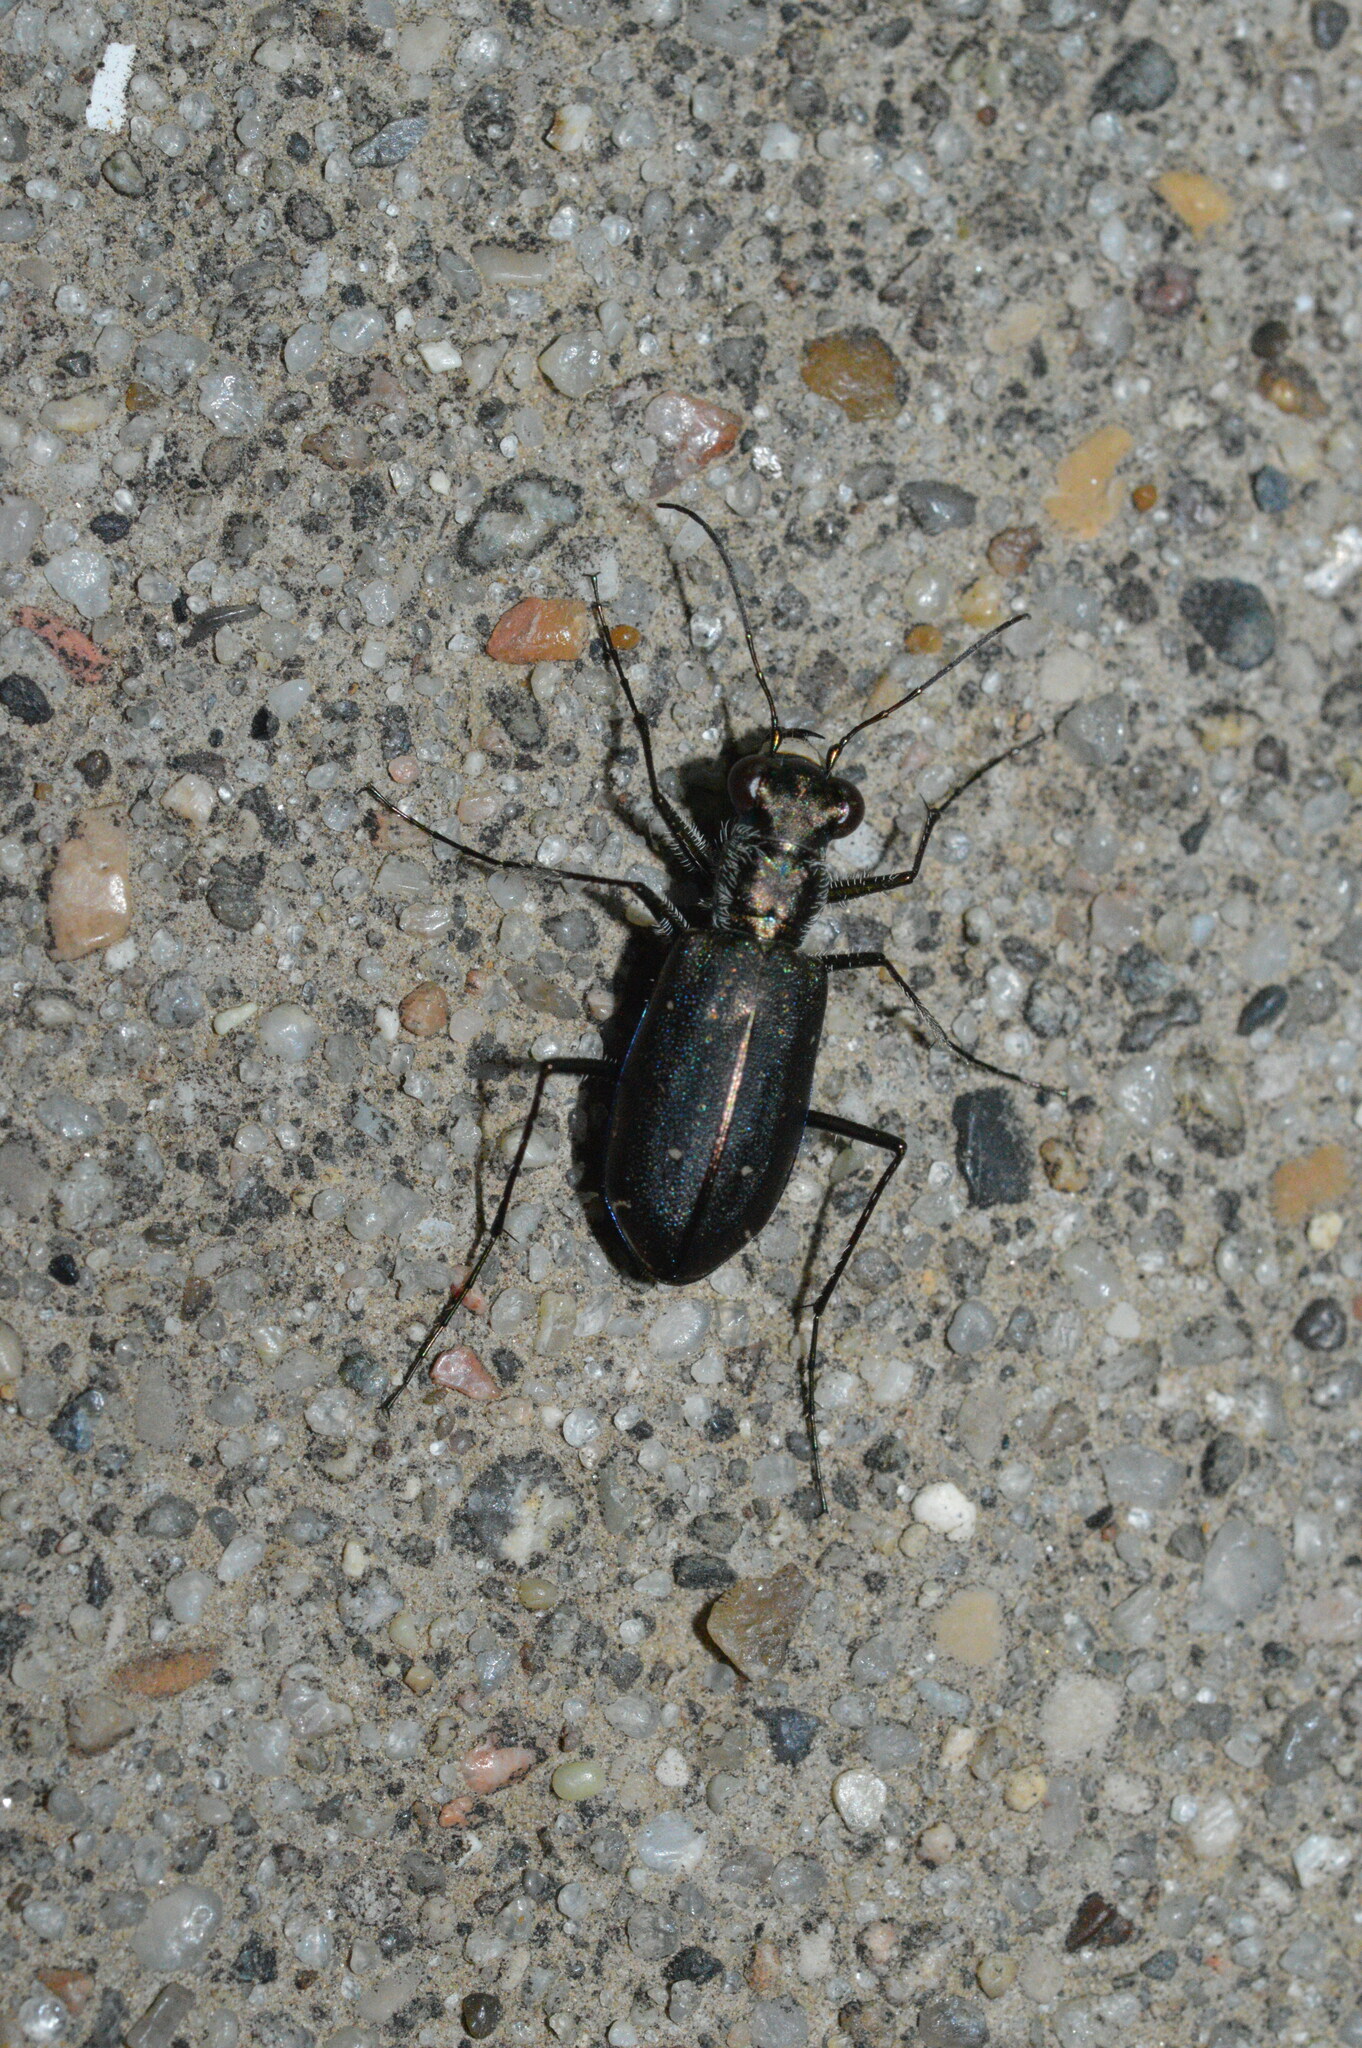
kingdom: Animalia
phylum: Arthropoda
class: Insecta
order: Coleoptera
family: Carabidae
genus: Cicindela
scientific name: Cicindela punctulata
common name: Punctured tiger beetle
